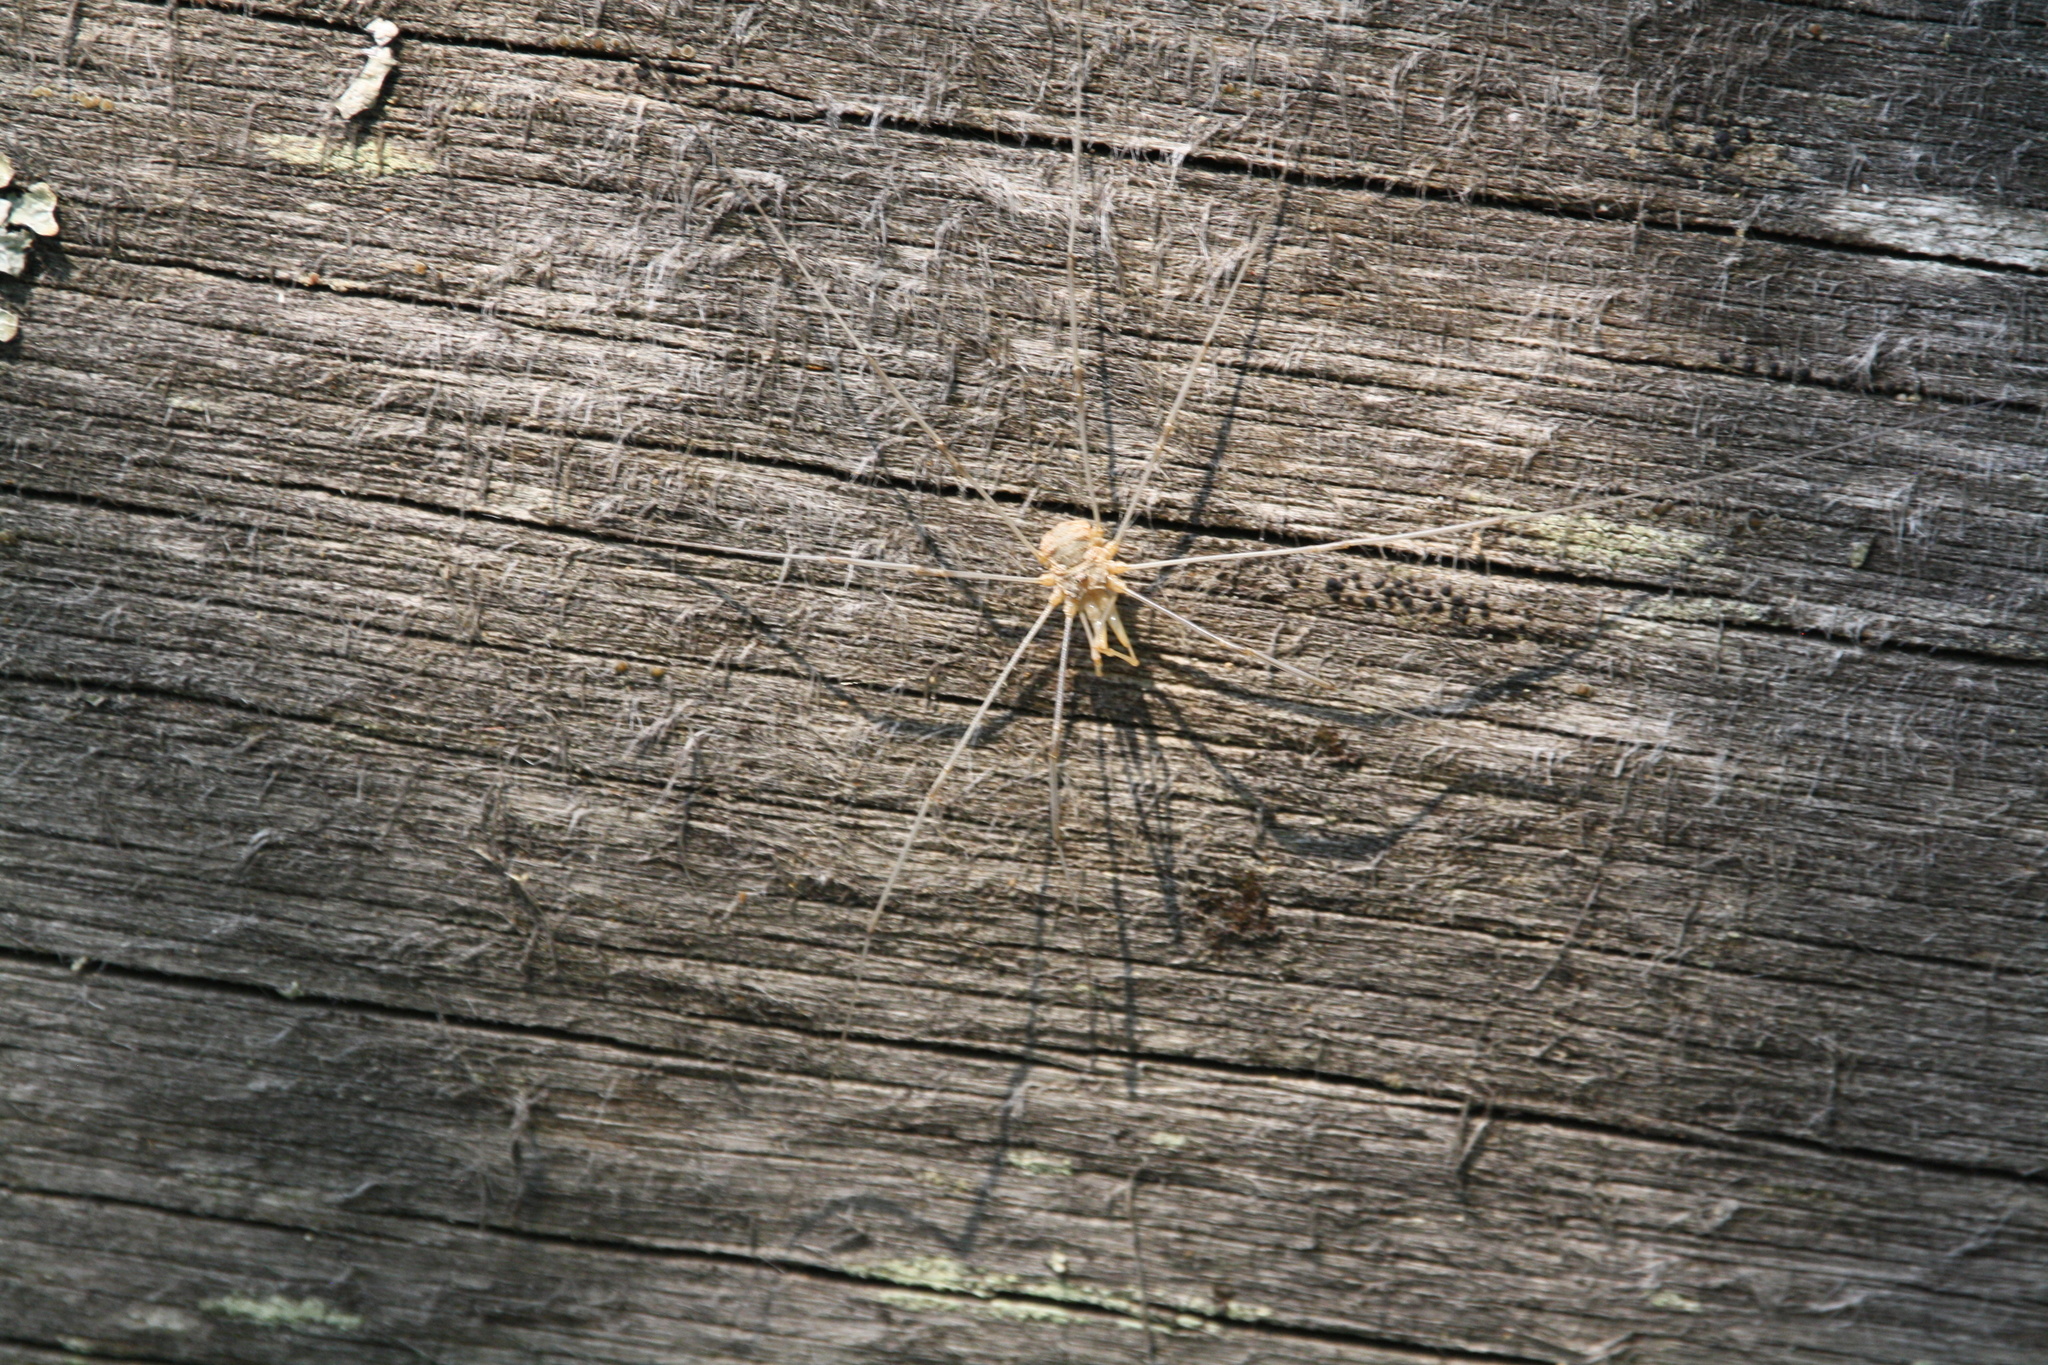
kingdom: Animalia
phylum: Arthropoda
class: Arachnida
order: Opiliones
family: Phalangiidae
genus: Phalangium
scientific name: Phalangium opilio
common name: Daddy longleg
